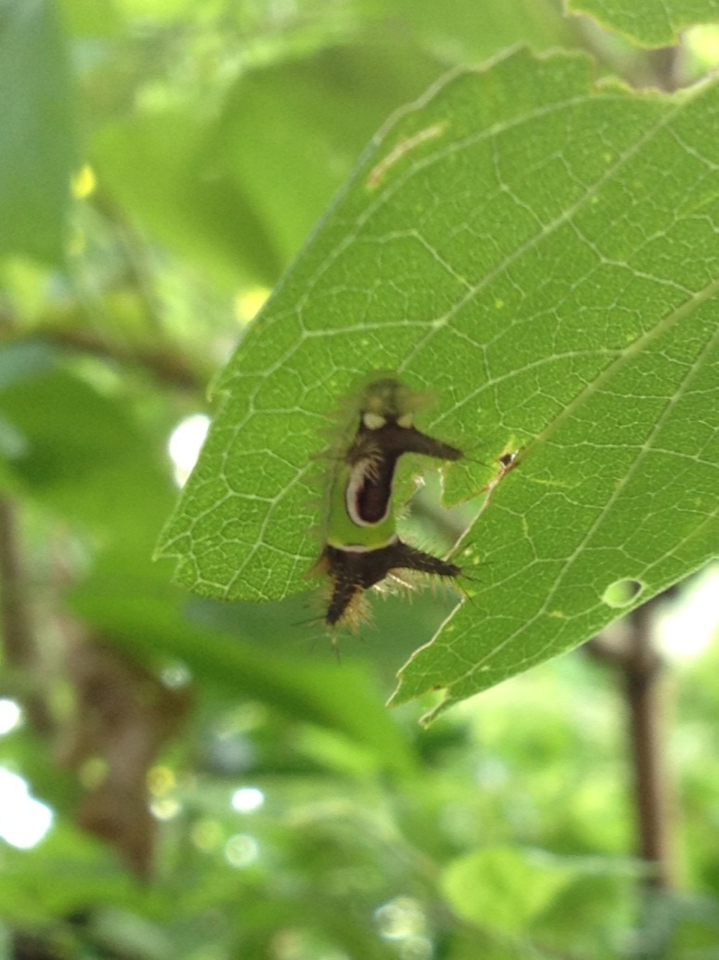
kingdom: Animalia
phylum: Arthropoda
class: Insecta
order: Lepidoptera
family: Limacodidae
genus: Acharia
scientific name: Acharia stimulea
